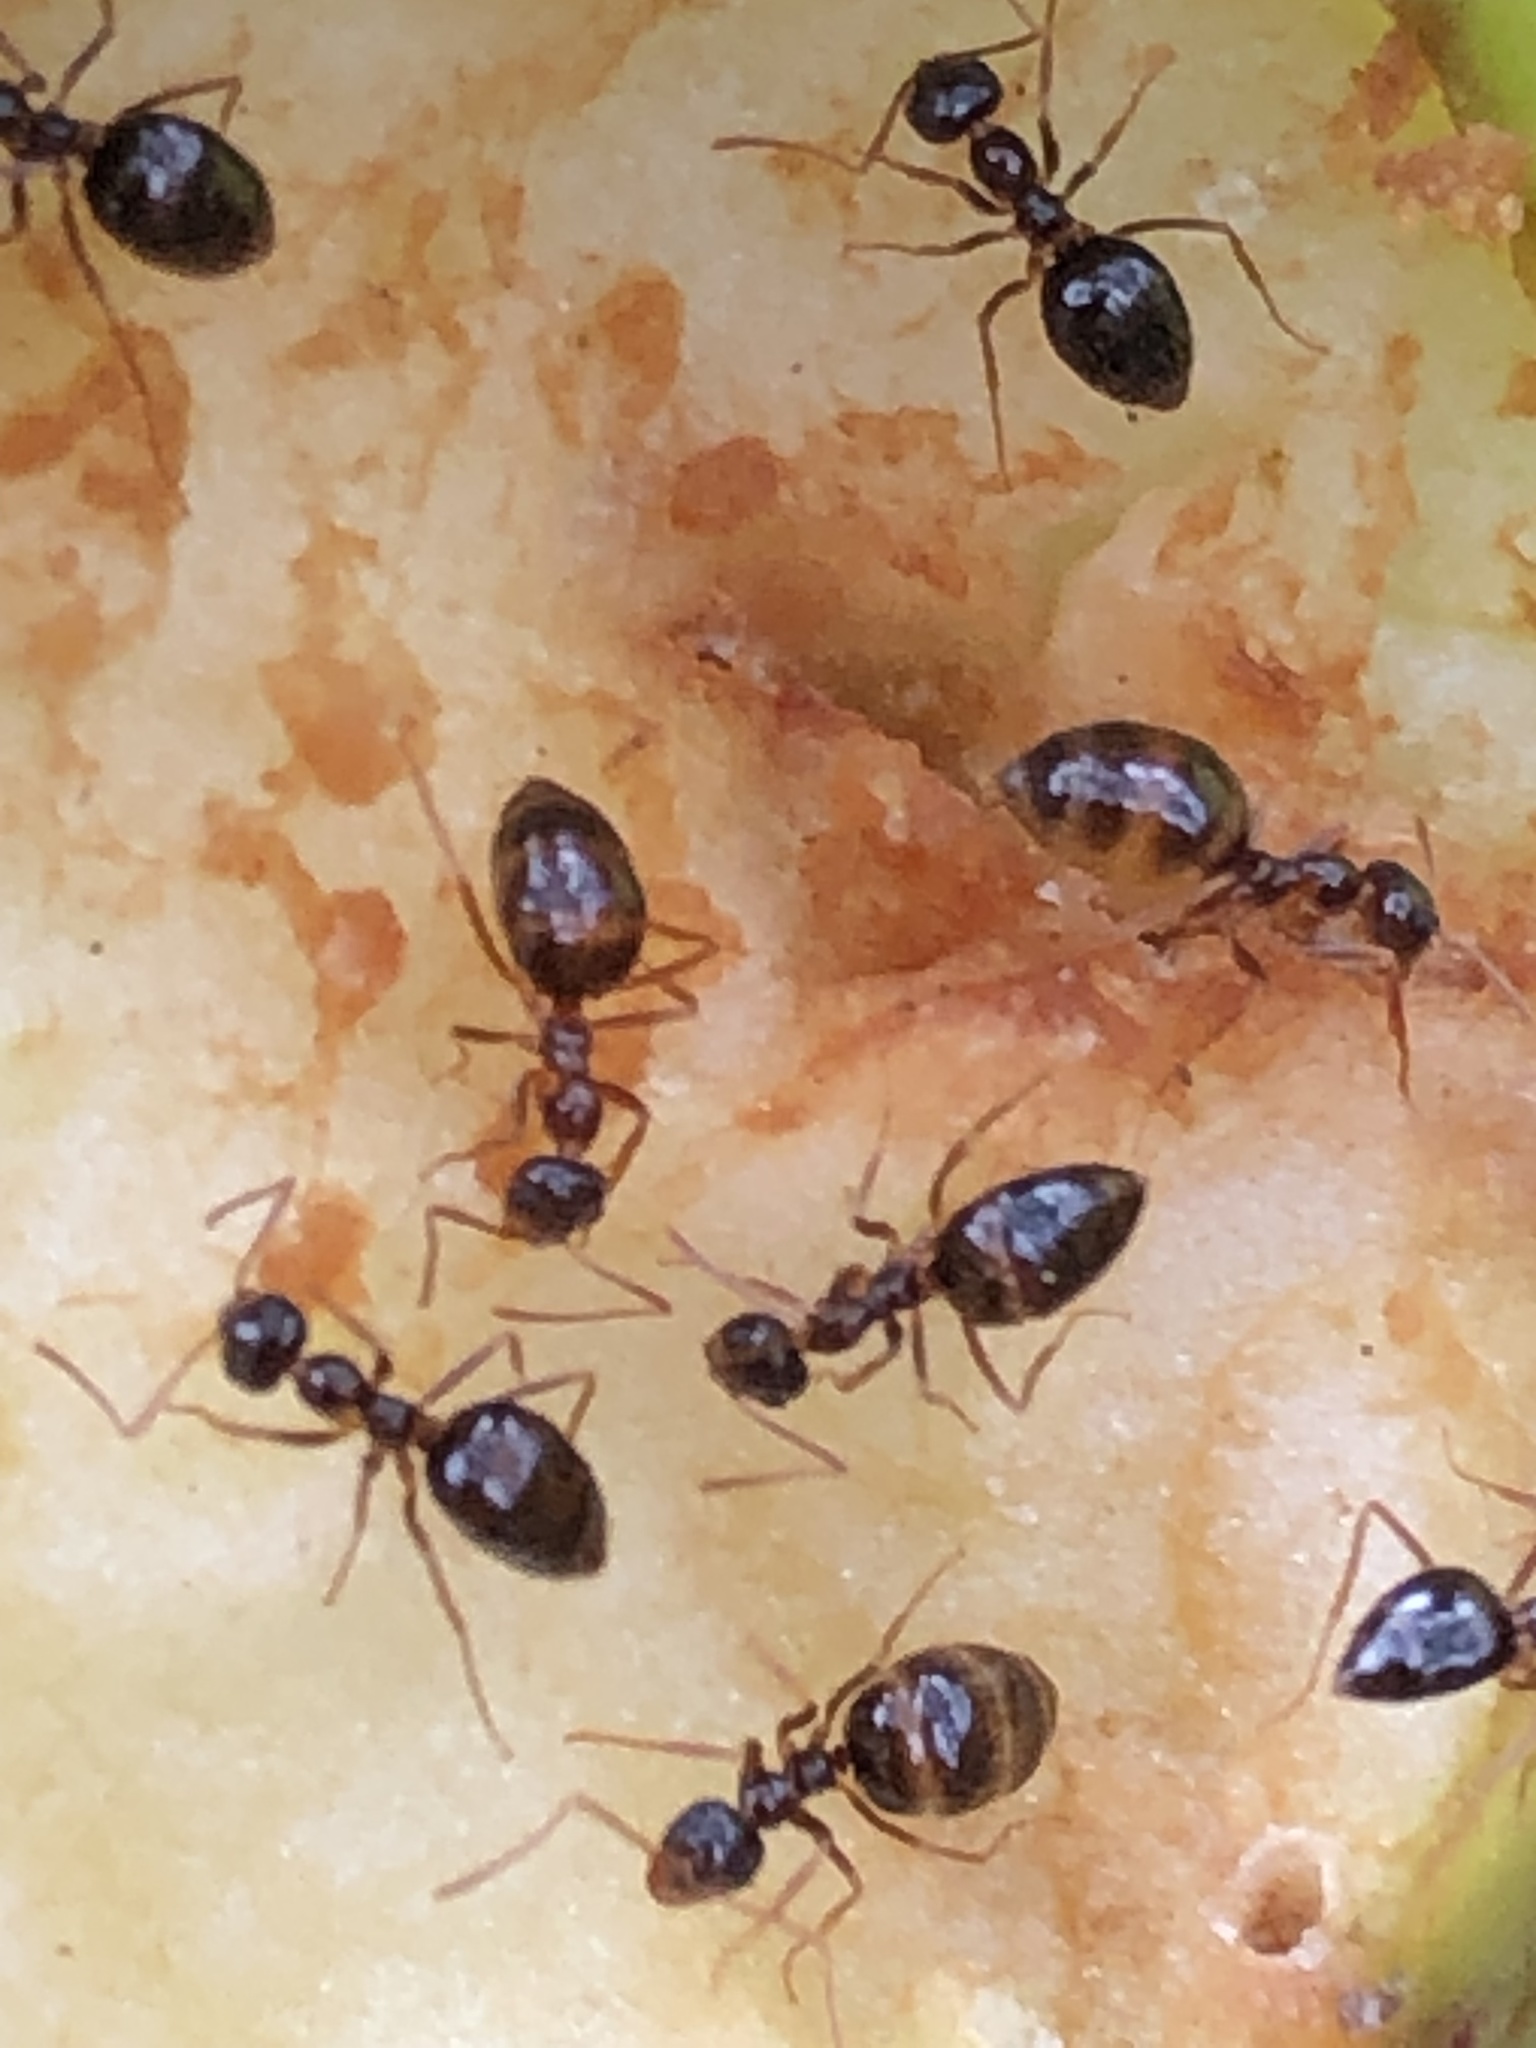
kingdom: Animalia
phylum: Arthropoda
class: Insecta
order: Hymenoptera
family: Formicidae
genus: Prenolepis
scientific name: Prenolepis imparis
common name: Small honey ant
